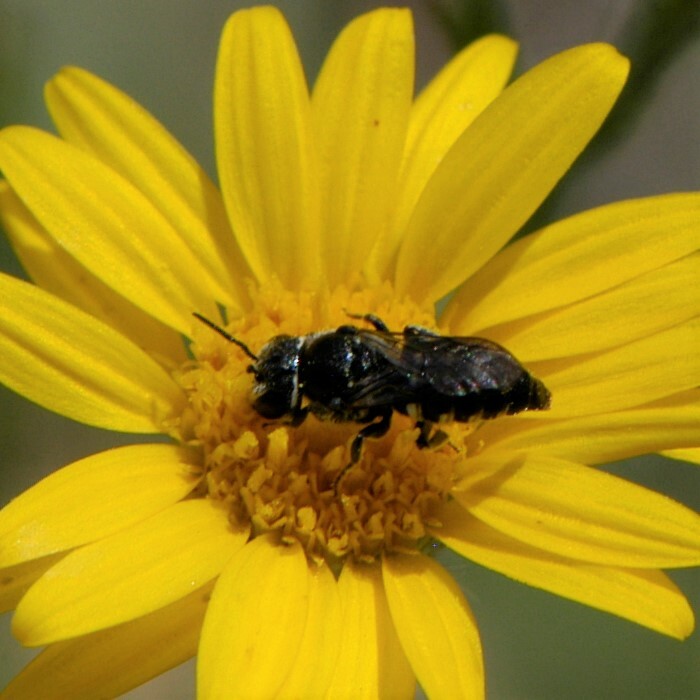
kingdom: Animalia
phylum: Arthropoda
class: Insecta
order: Hymenoptera
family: Megachilidae
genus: Stelis
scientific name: Stelis
